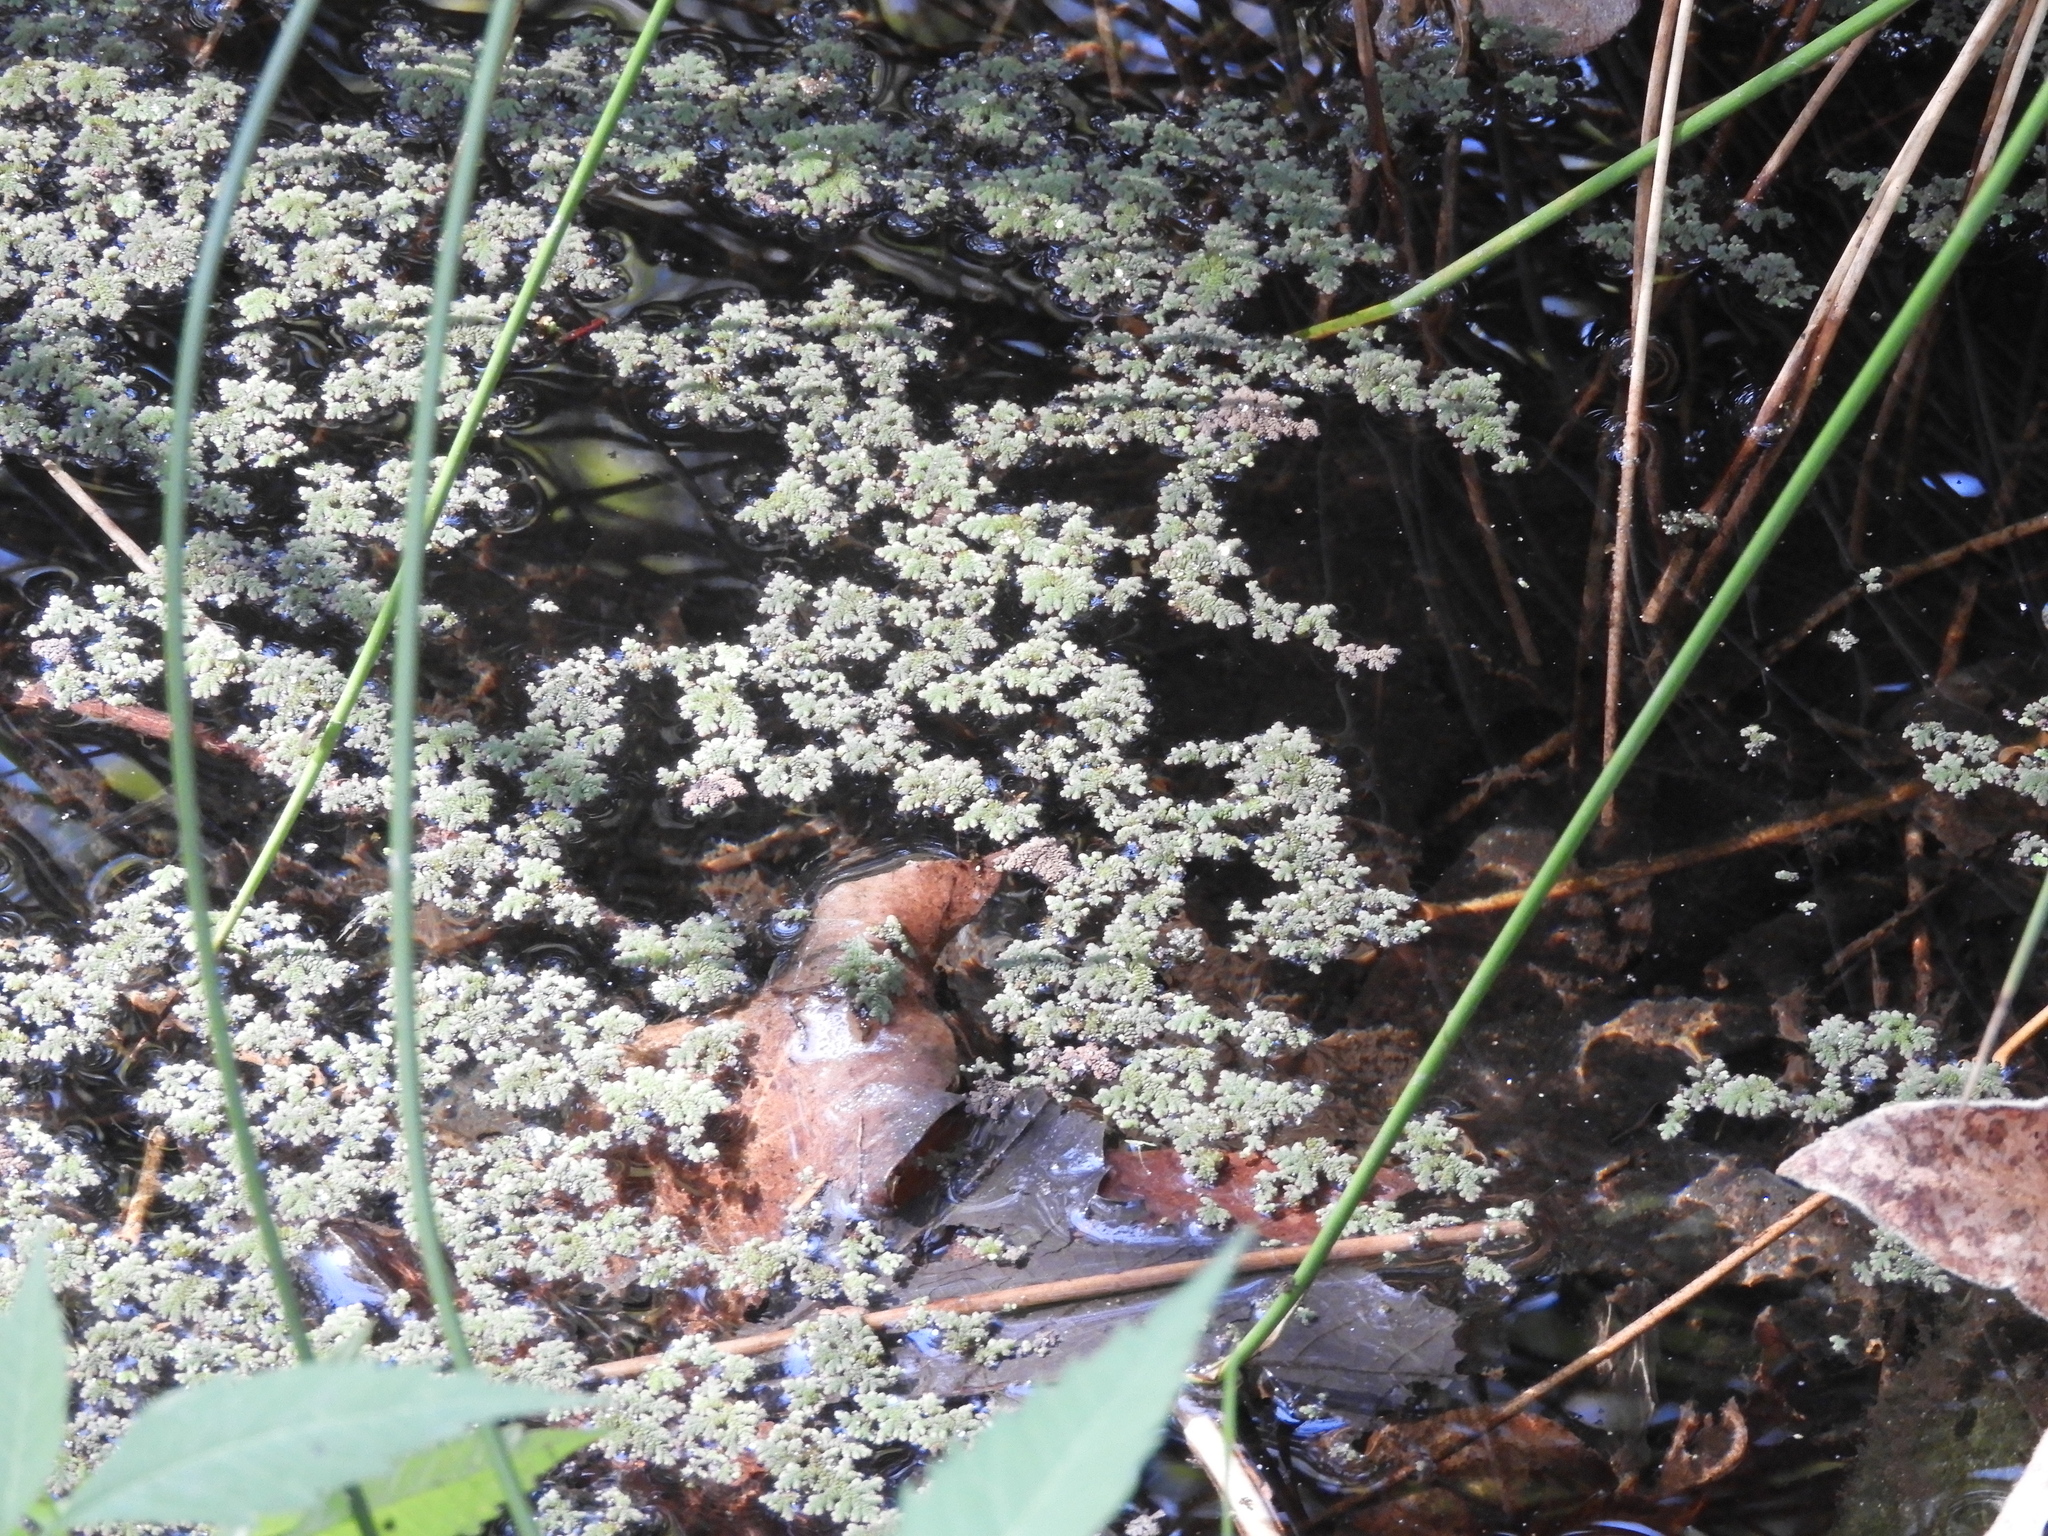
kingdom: Plantae
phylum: Tracheophyta
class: Polypodiopsida
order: Salviniales
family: Salviniaceae
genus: Azolla
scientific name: Azolla filiculoides
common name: Water fern
